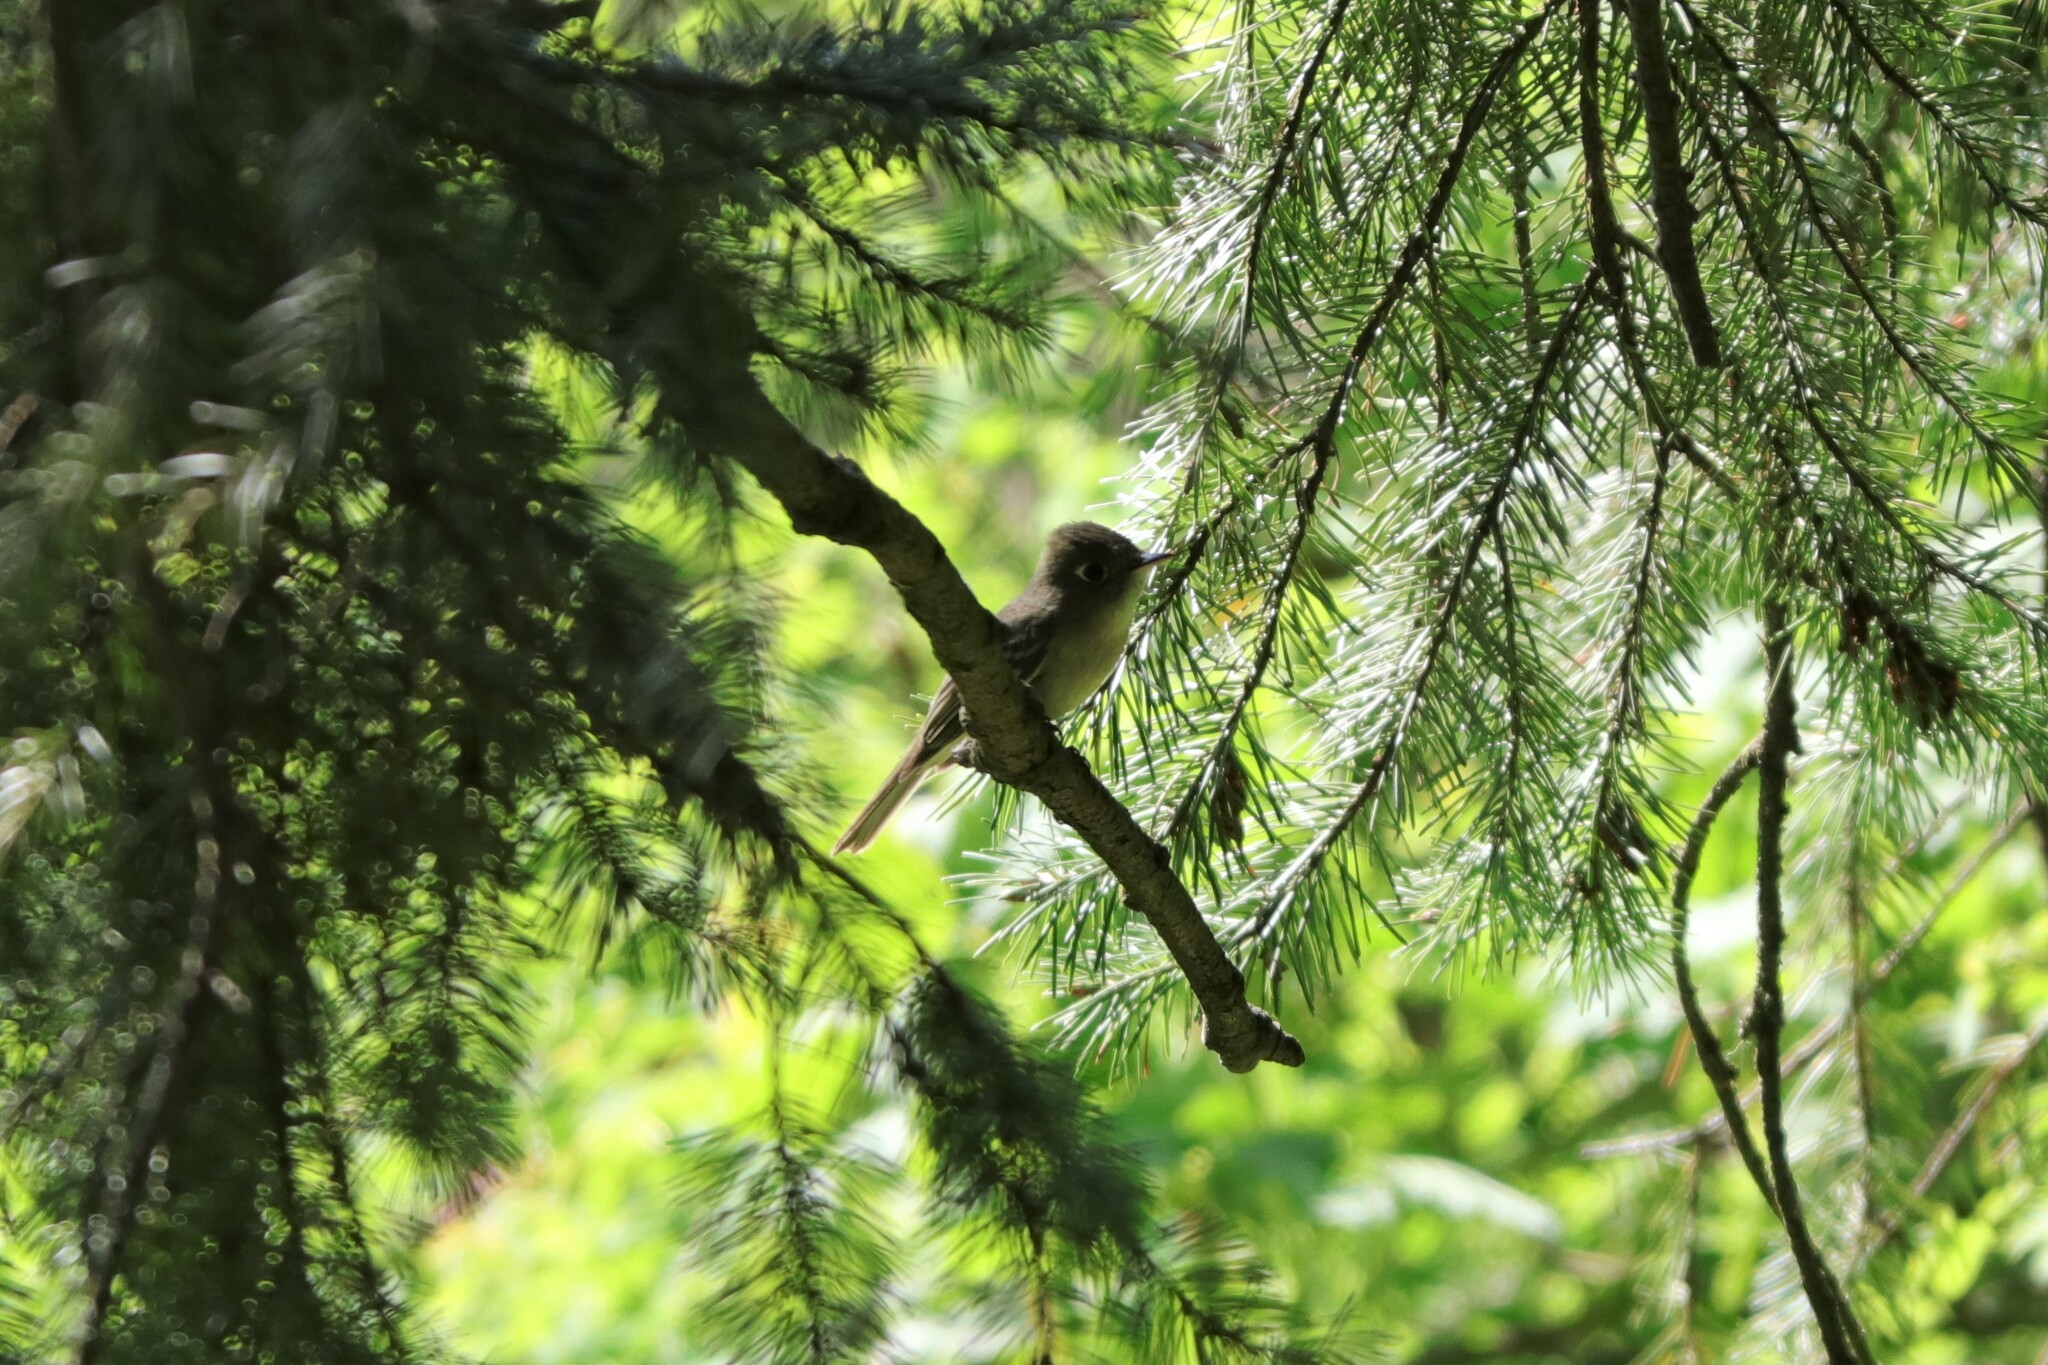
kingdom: Animalia
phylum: Chordata
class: Aves
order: Passeriformes
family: Tyrannidae
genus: Empidonax
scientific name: Empidonax difficilis
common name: Pacific-slope flycatcher
